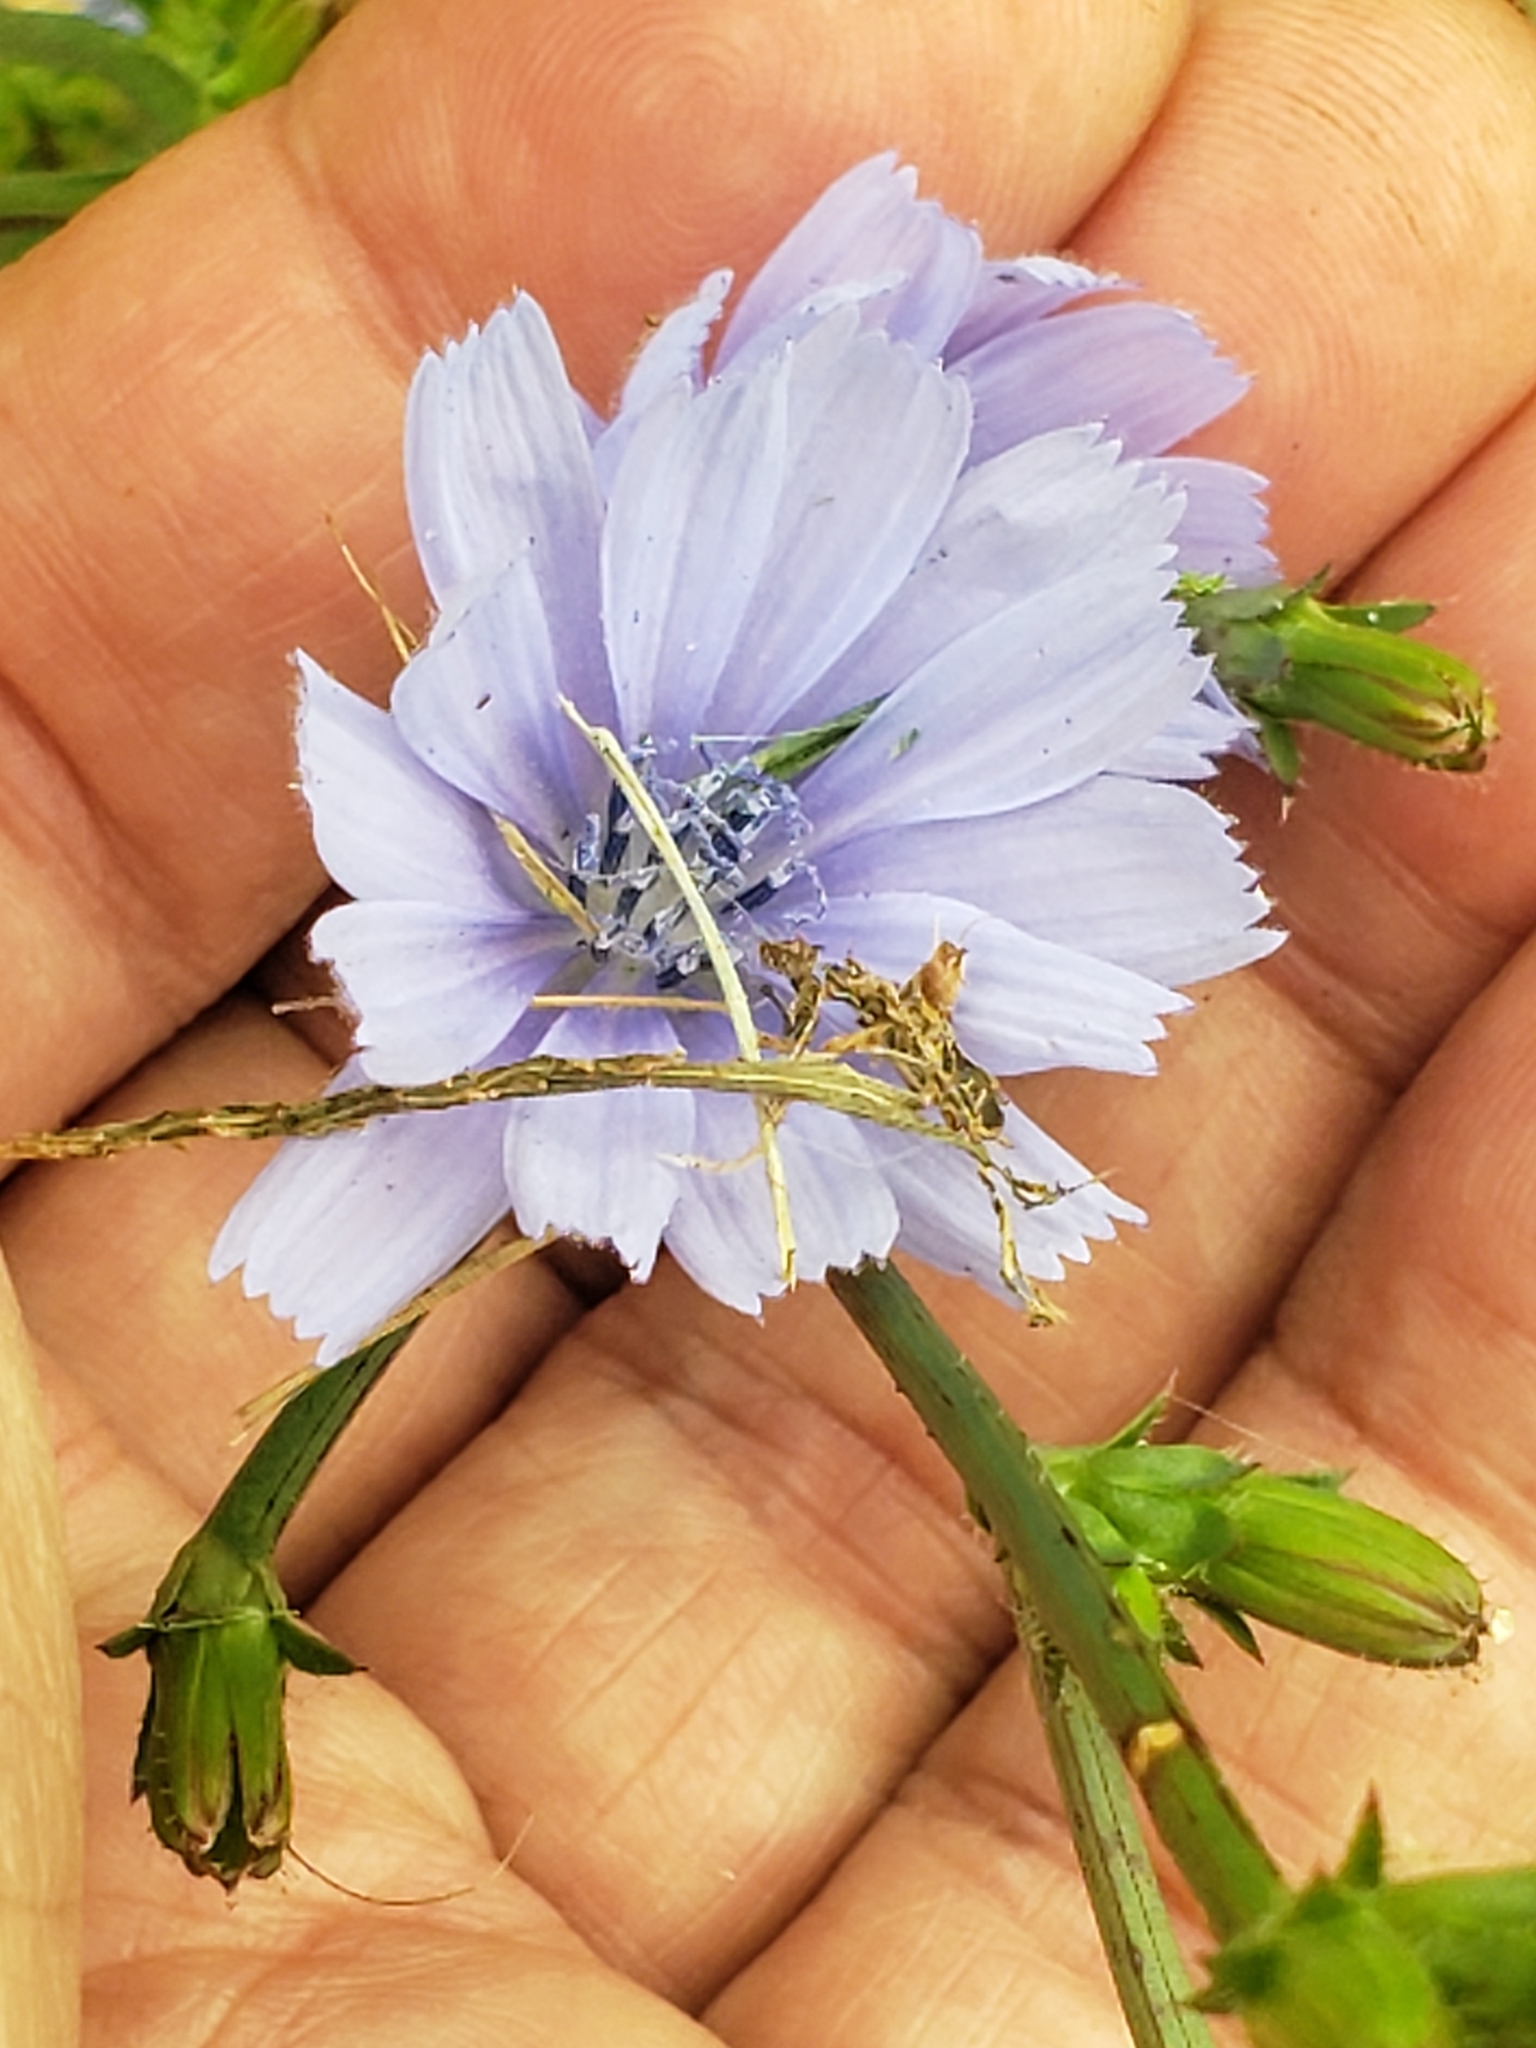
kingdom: Plantae
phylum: Tracheophyta
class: Magnoliopsida
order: Asterales
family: Asteraceae
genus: Cichorium
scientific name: Cichorium intybus
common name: Chicory
